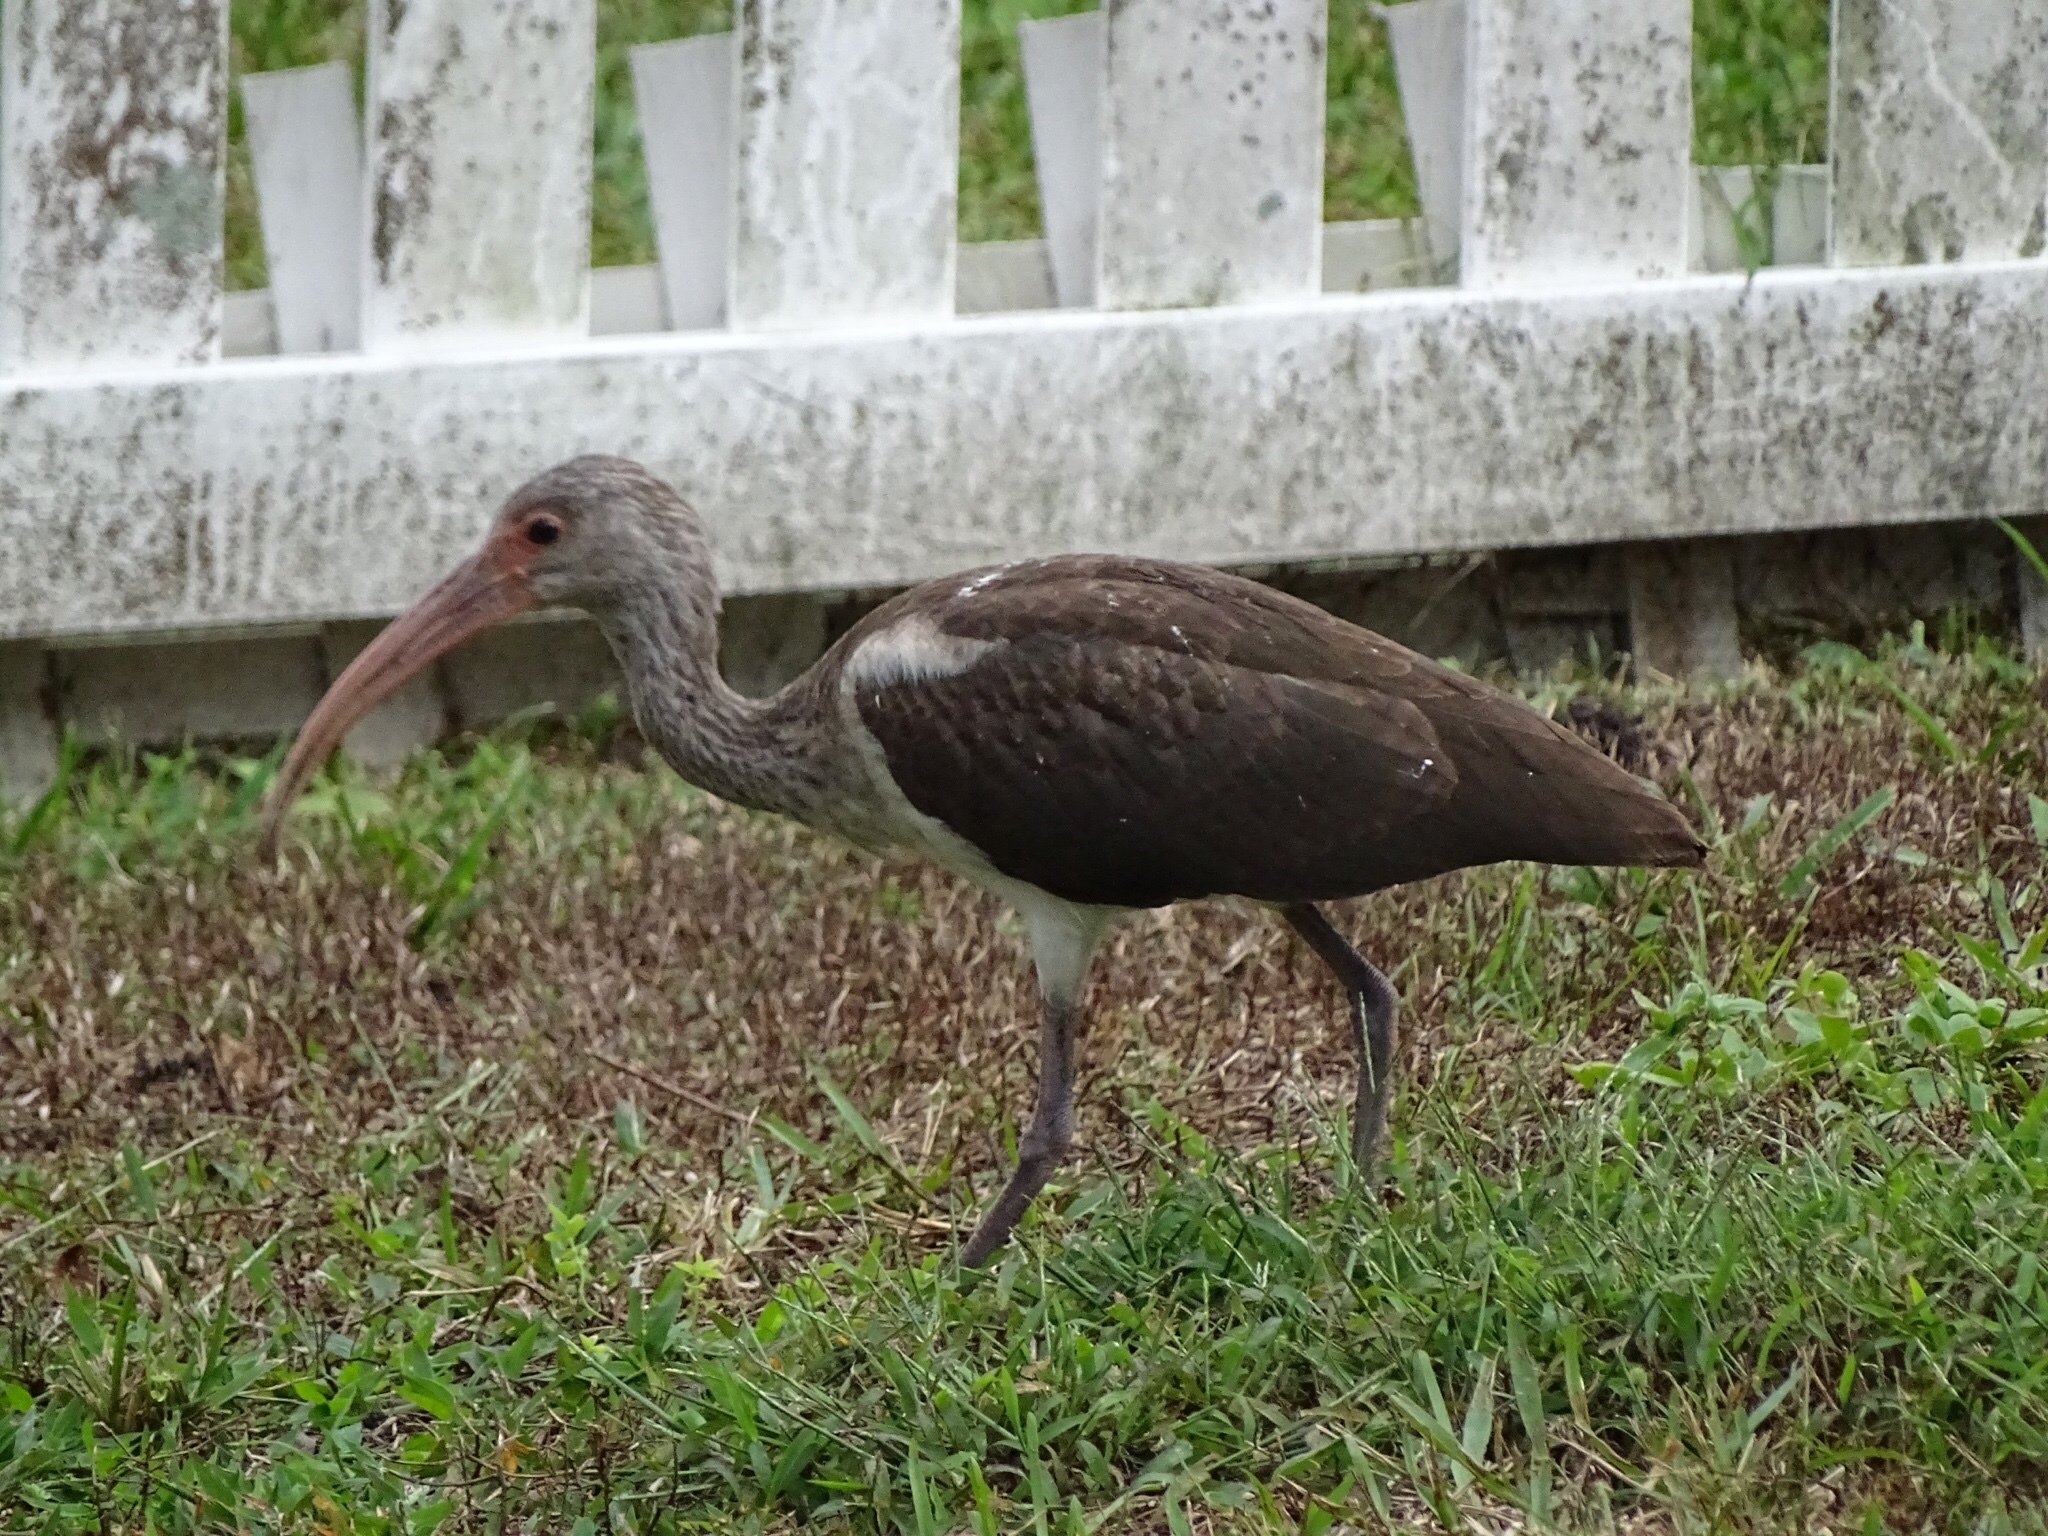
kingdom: Animalia
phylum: Chordata
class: Aves
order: Pelecaniformes
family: Threskiornithidae
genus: Eudocimus
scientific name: Eudocimus albus
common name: White ibis
